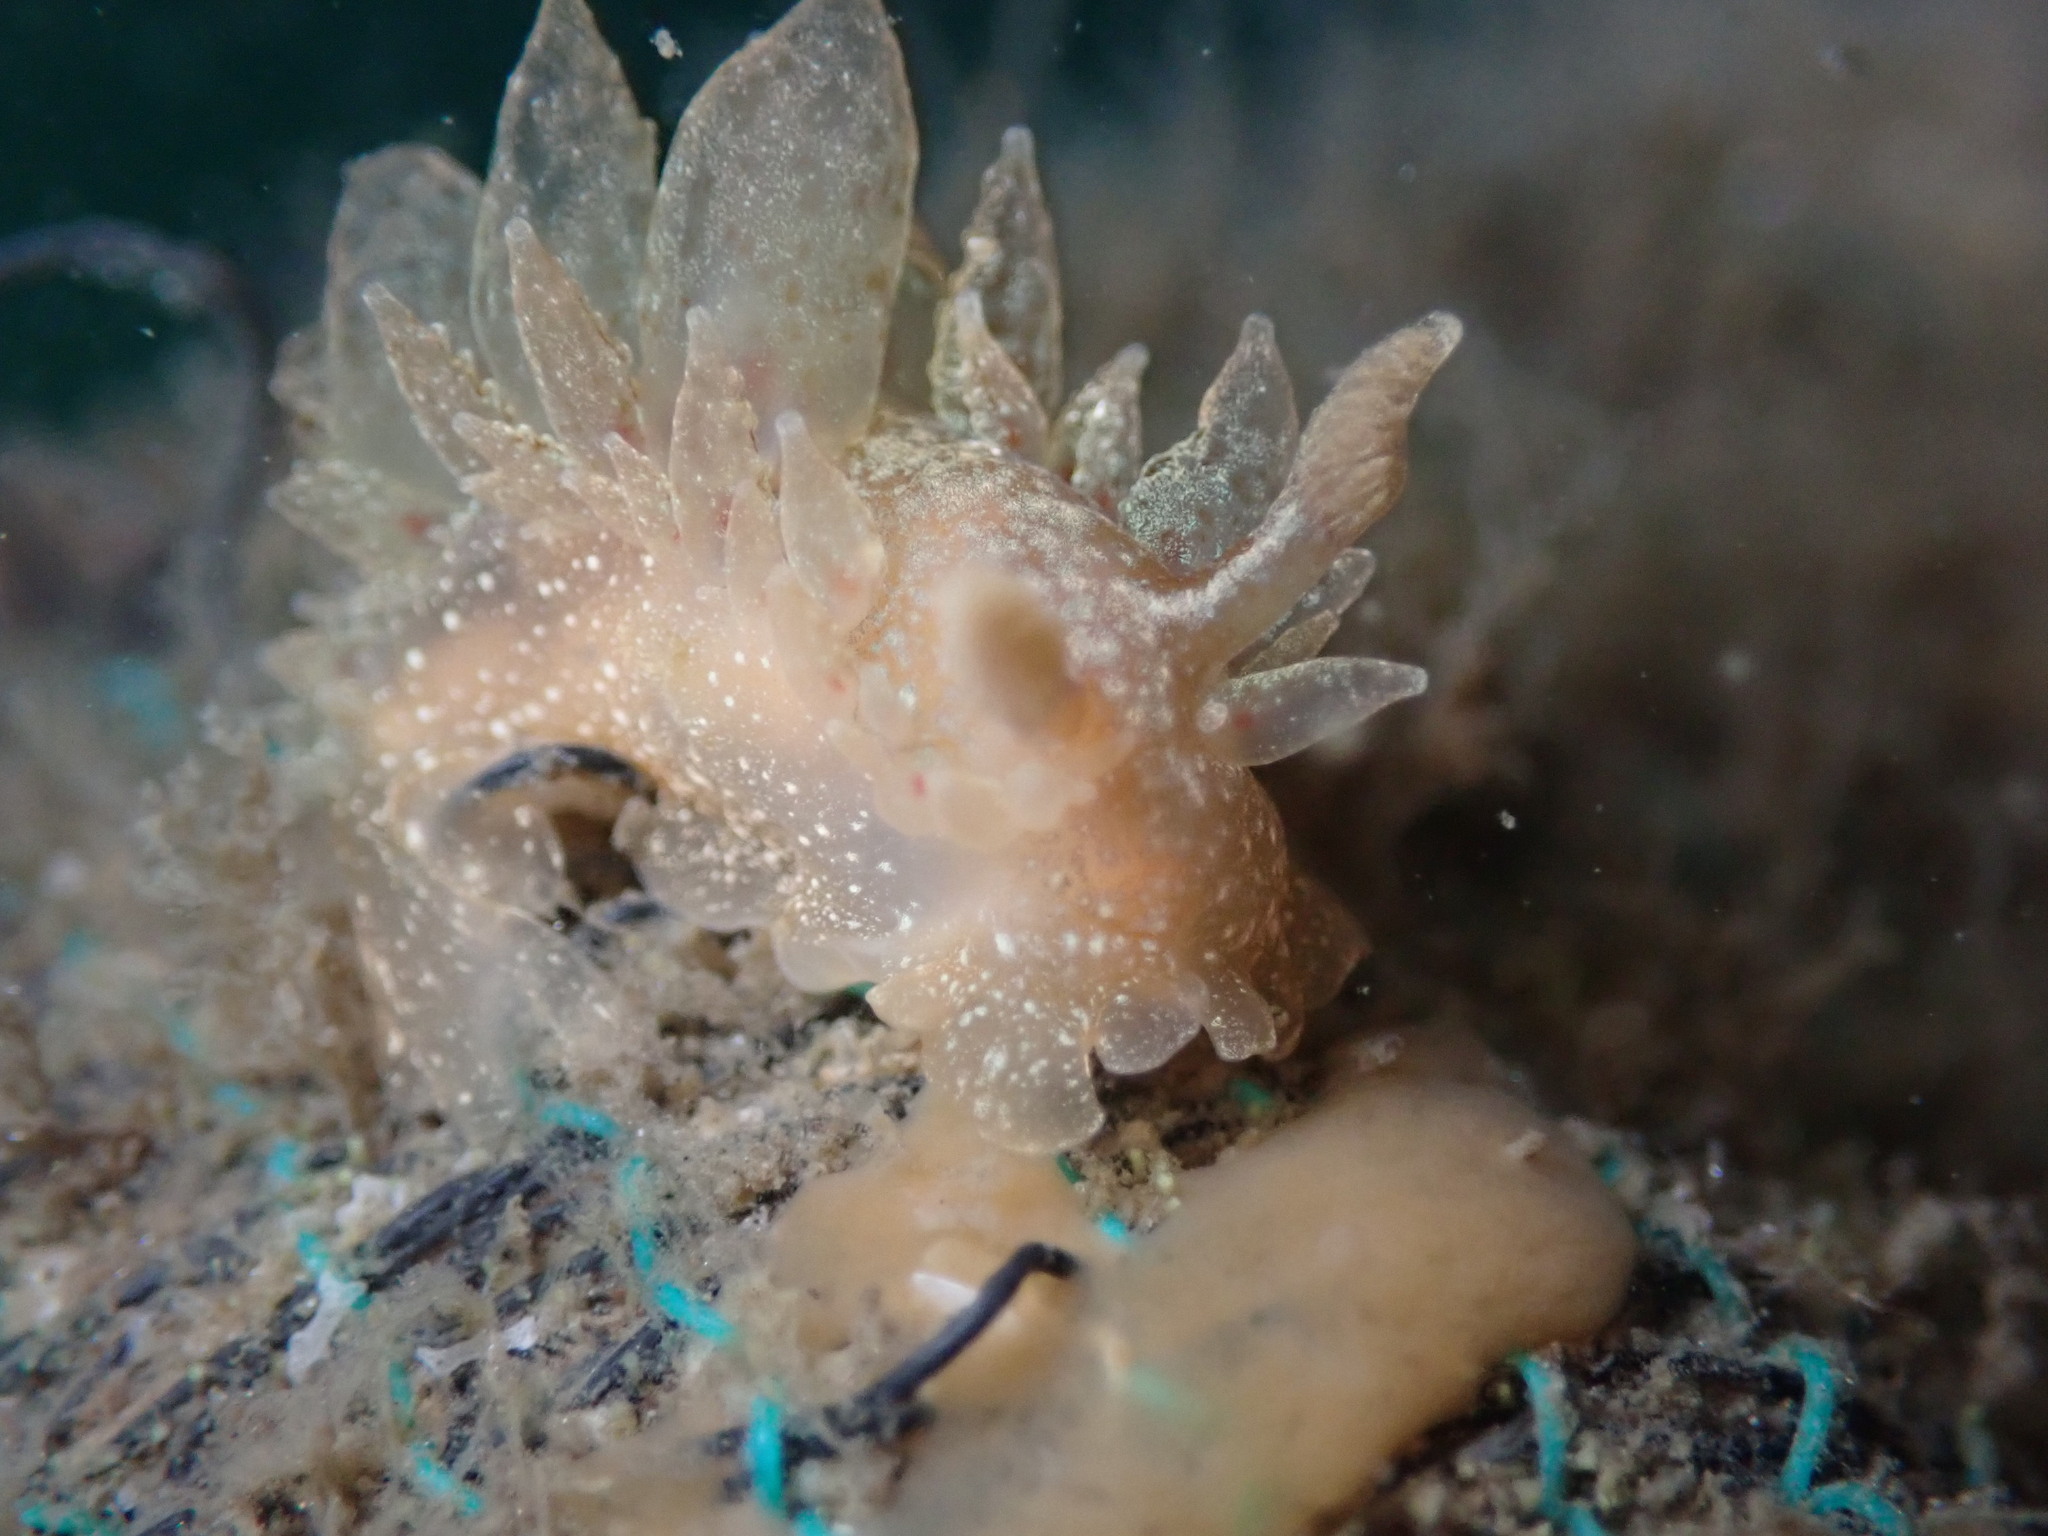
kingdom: Animalia
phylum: Mollusca
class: Gastropoda
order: Nudibranchia
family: Dironidae
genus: Dirona
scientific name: Dirona picta
